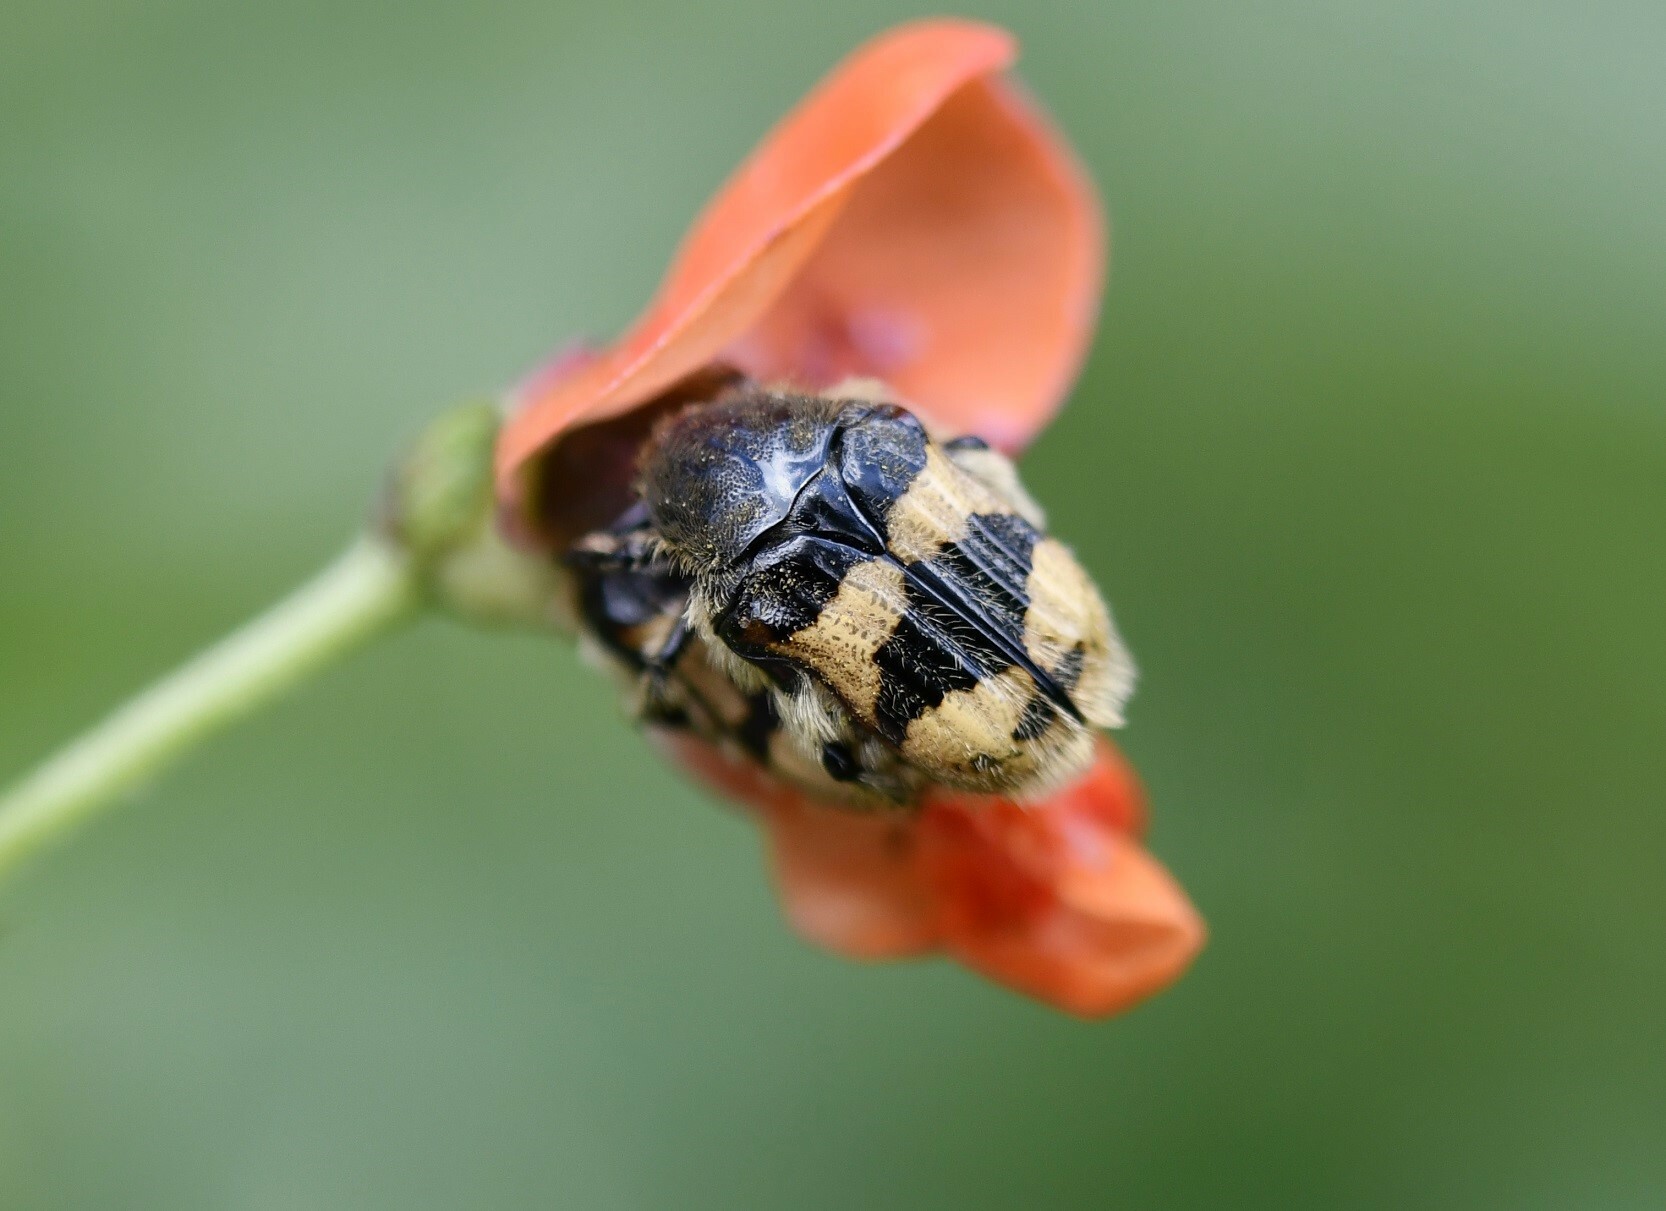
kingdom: Animalia
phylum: Arthropoda
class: Insecta
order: Coleoptera
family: Scarabaeidae
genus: Euphoria
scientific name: Euphoria basalis
